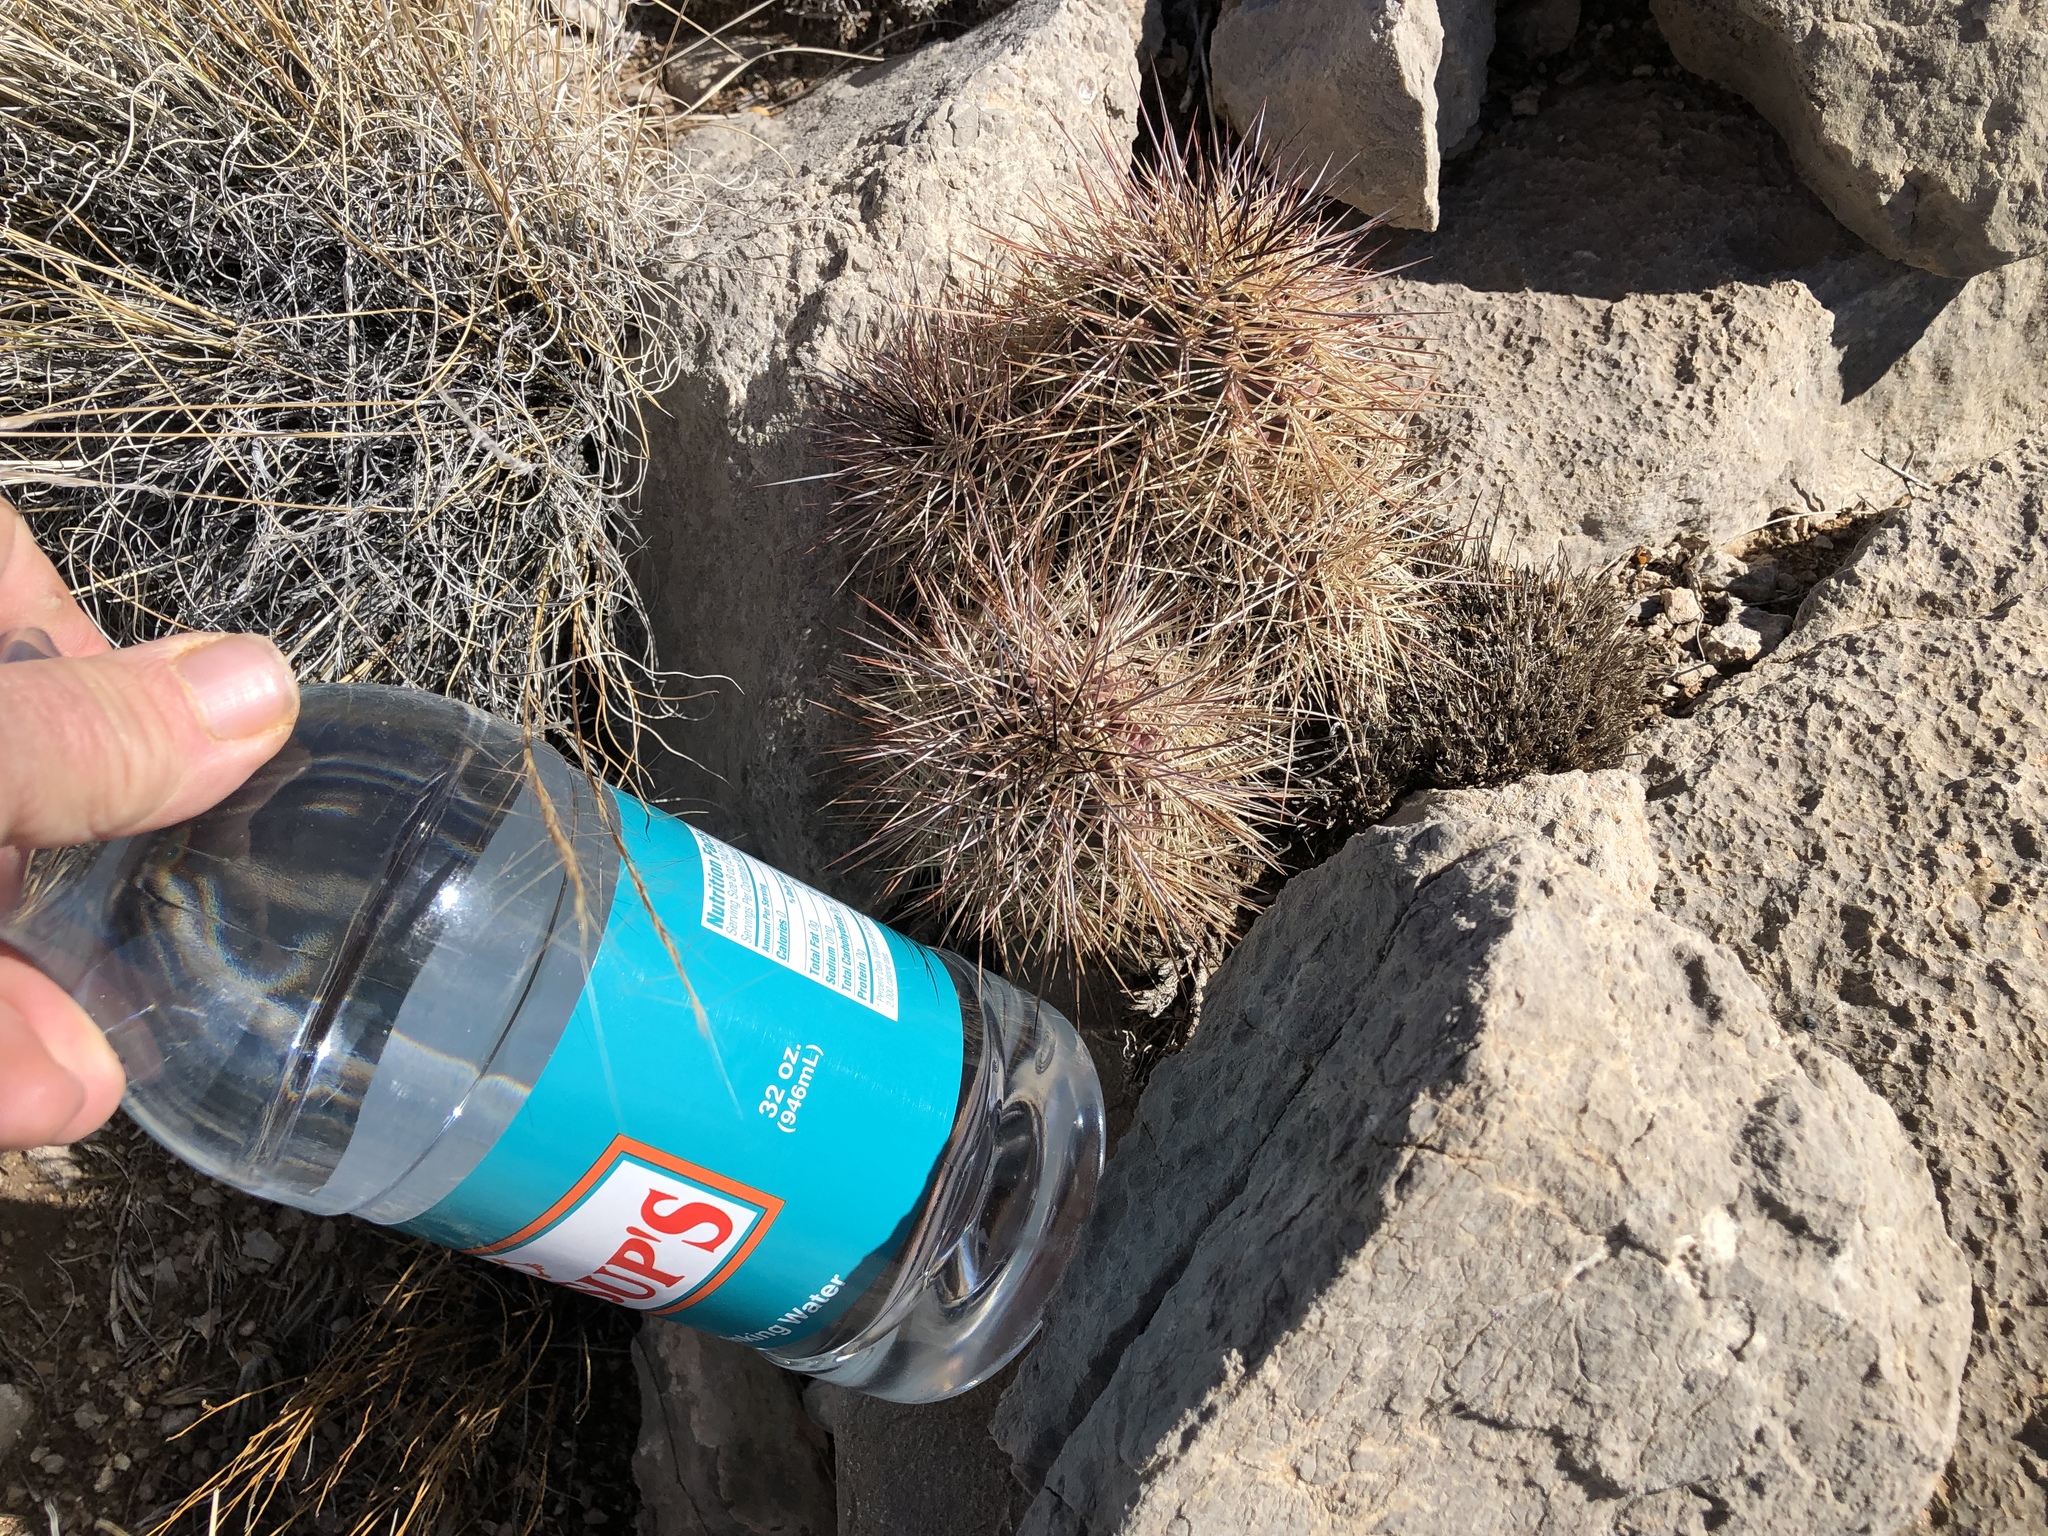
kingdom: Plantae
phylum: Tracheophyta
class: Magnoliopsida
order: Caryophyllales
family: Cactaceae
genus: Echinocereus
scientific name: Echinocereus coccineus
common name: Scarlet hedgehog cactus
